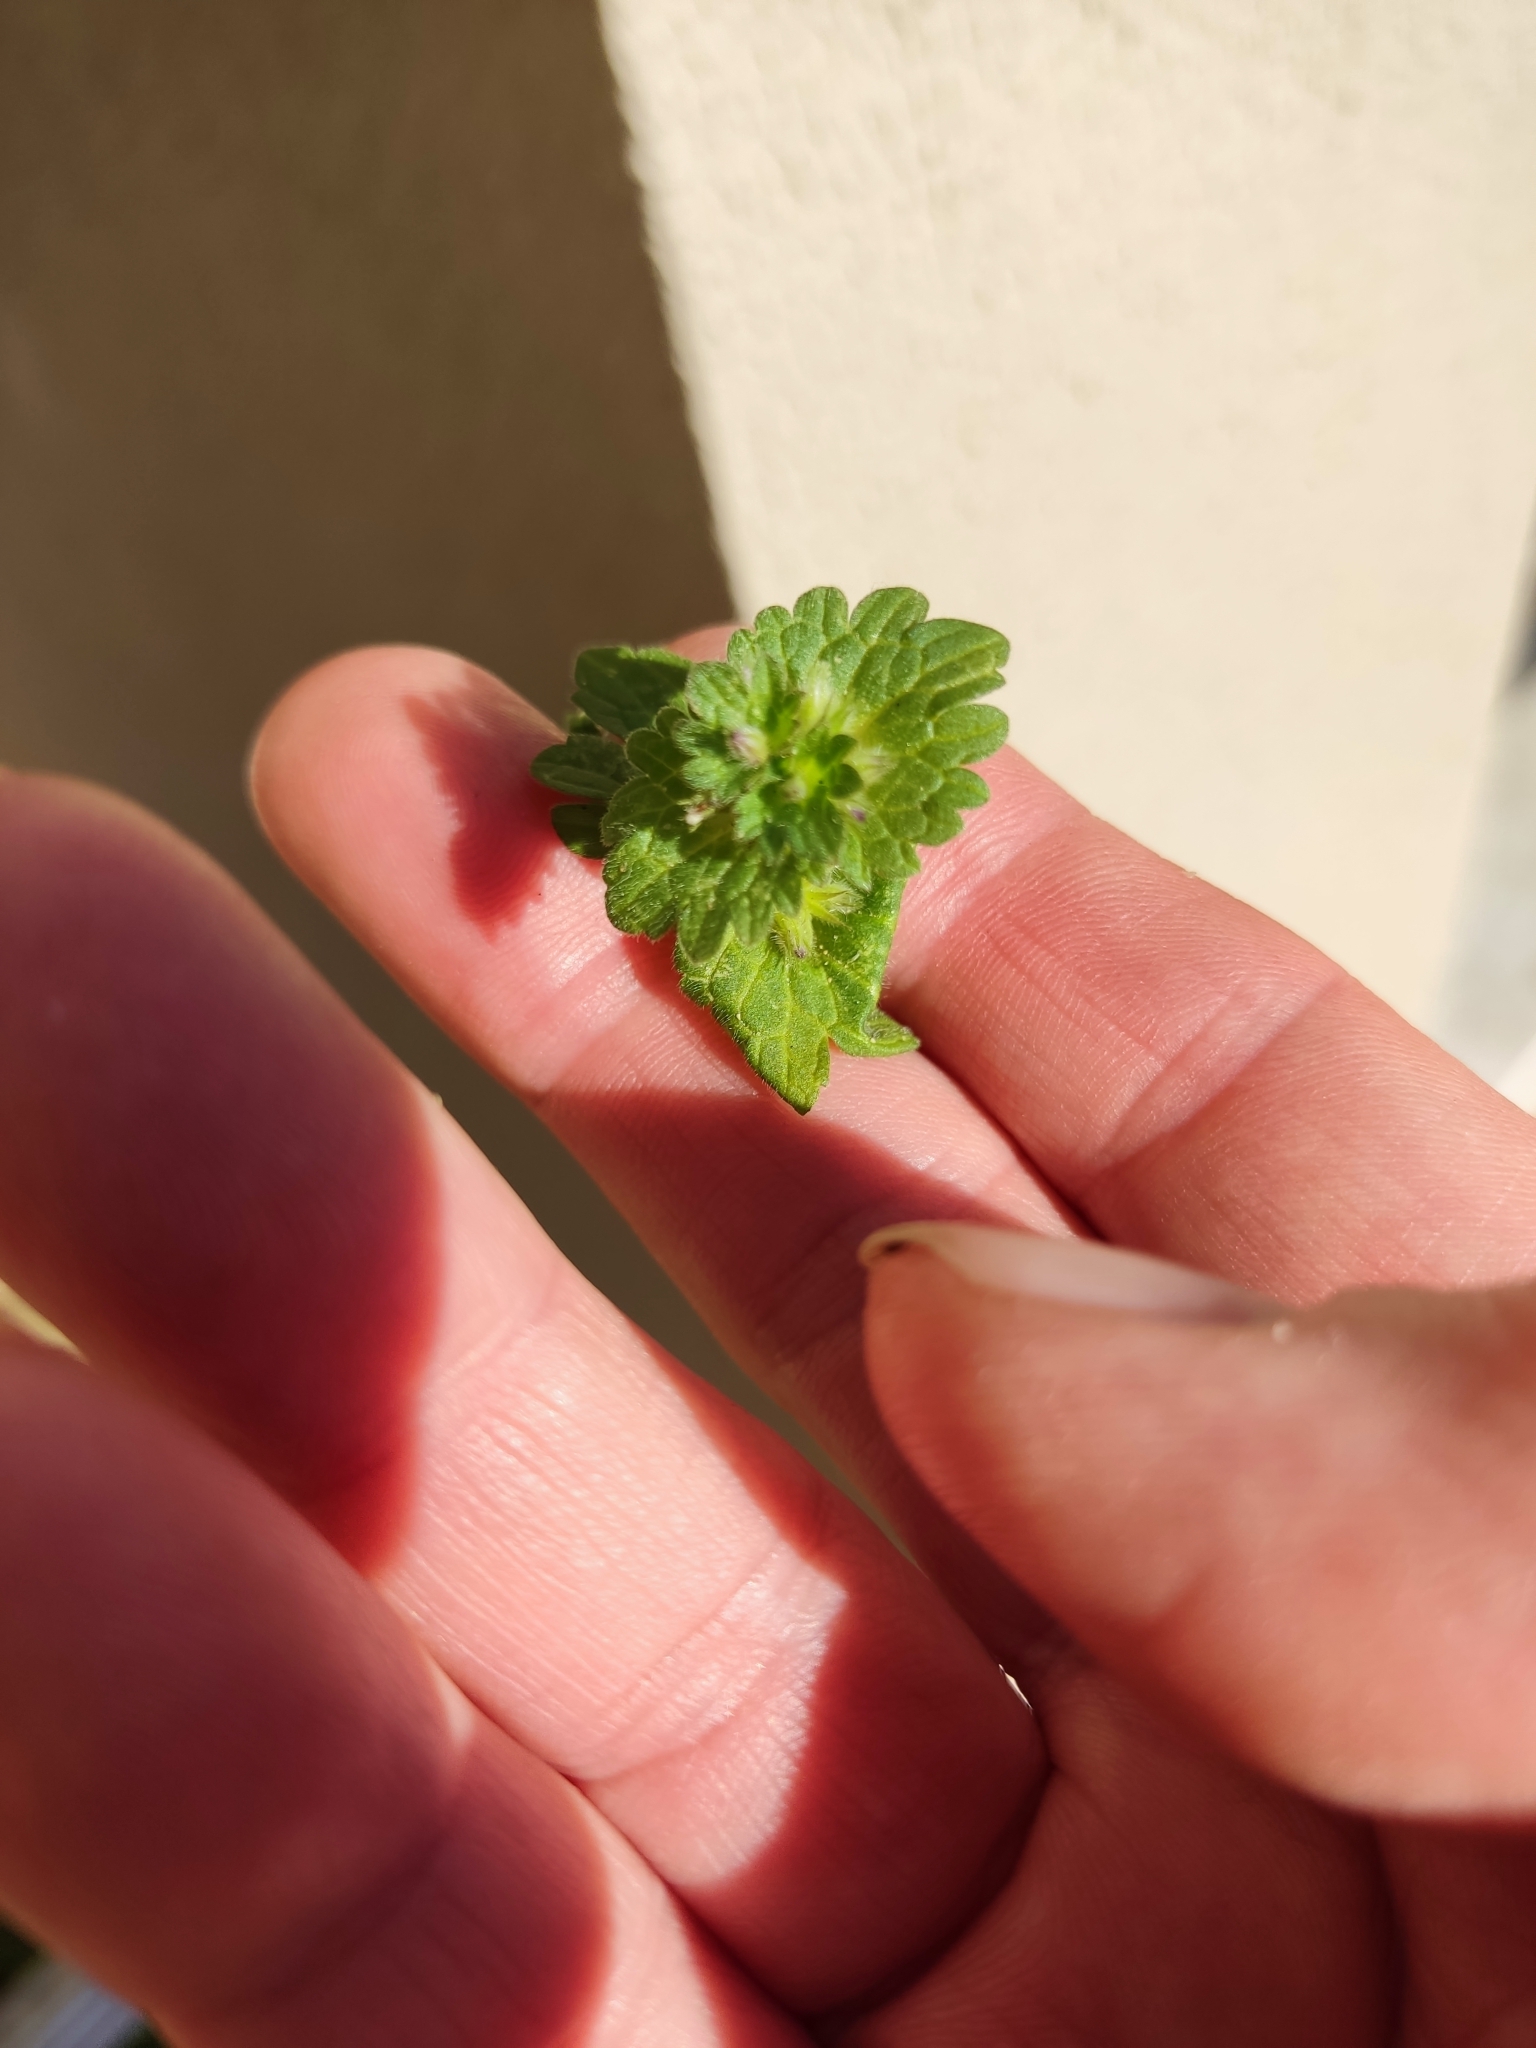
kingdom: Plantae
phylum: Tracheophyta
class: Magnoliopsida
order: Lamiales
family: Lamiaceae
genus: Lamium
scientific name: Lamium amplexicaule
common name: Henbit dead-nettle
